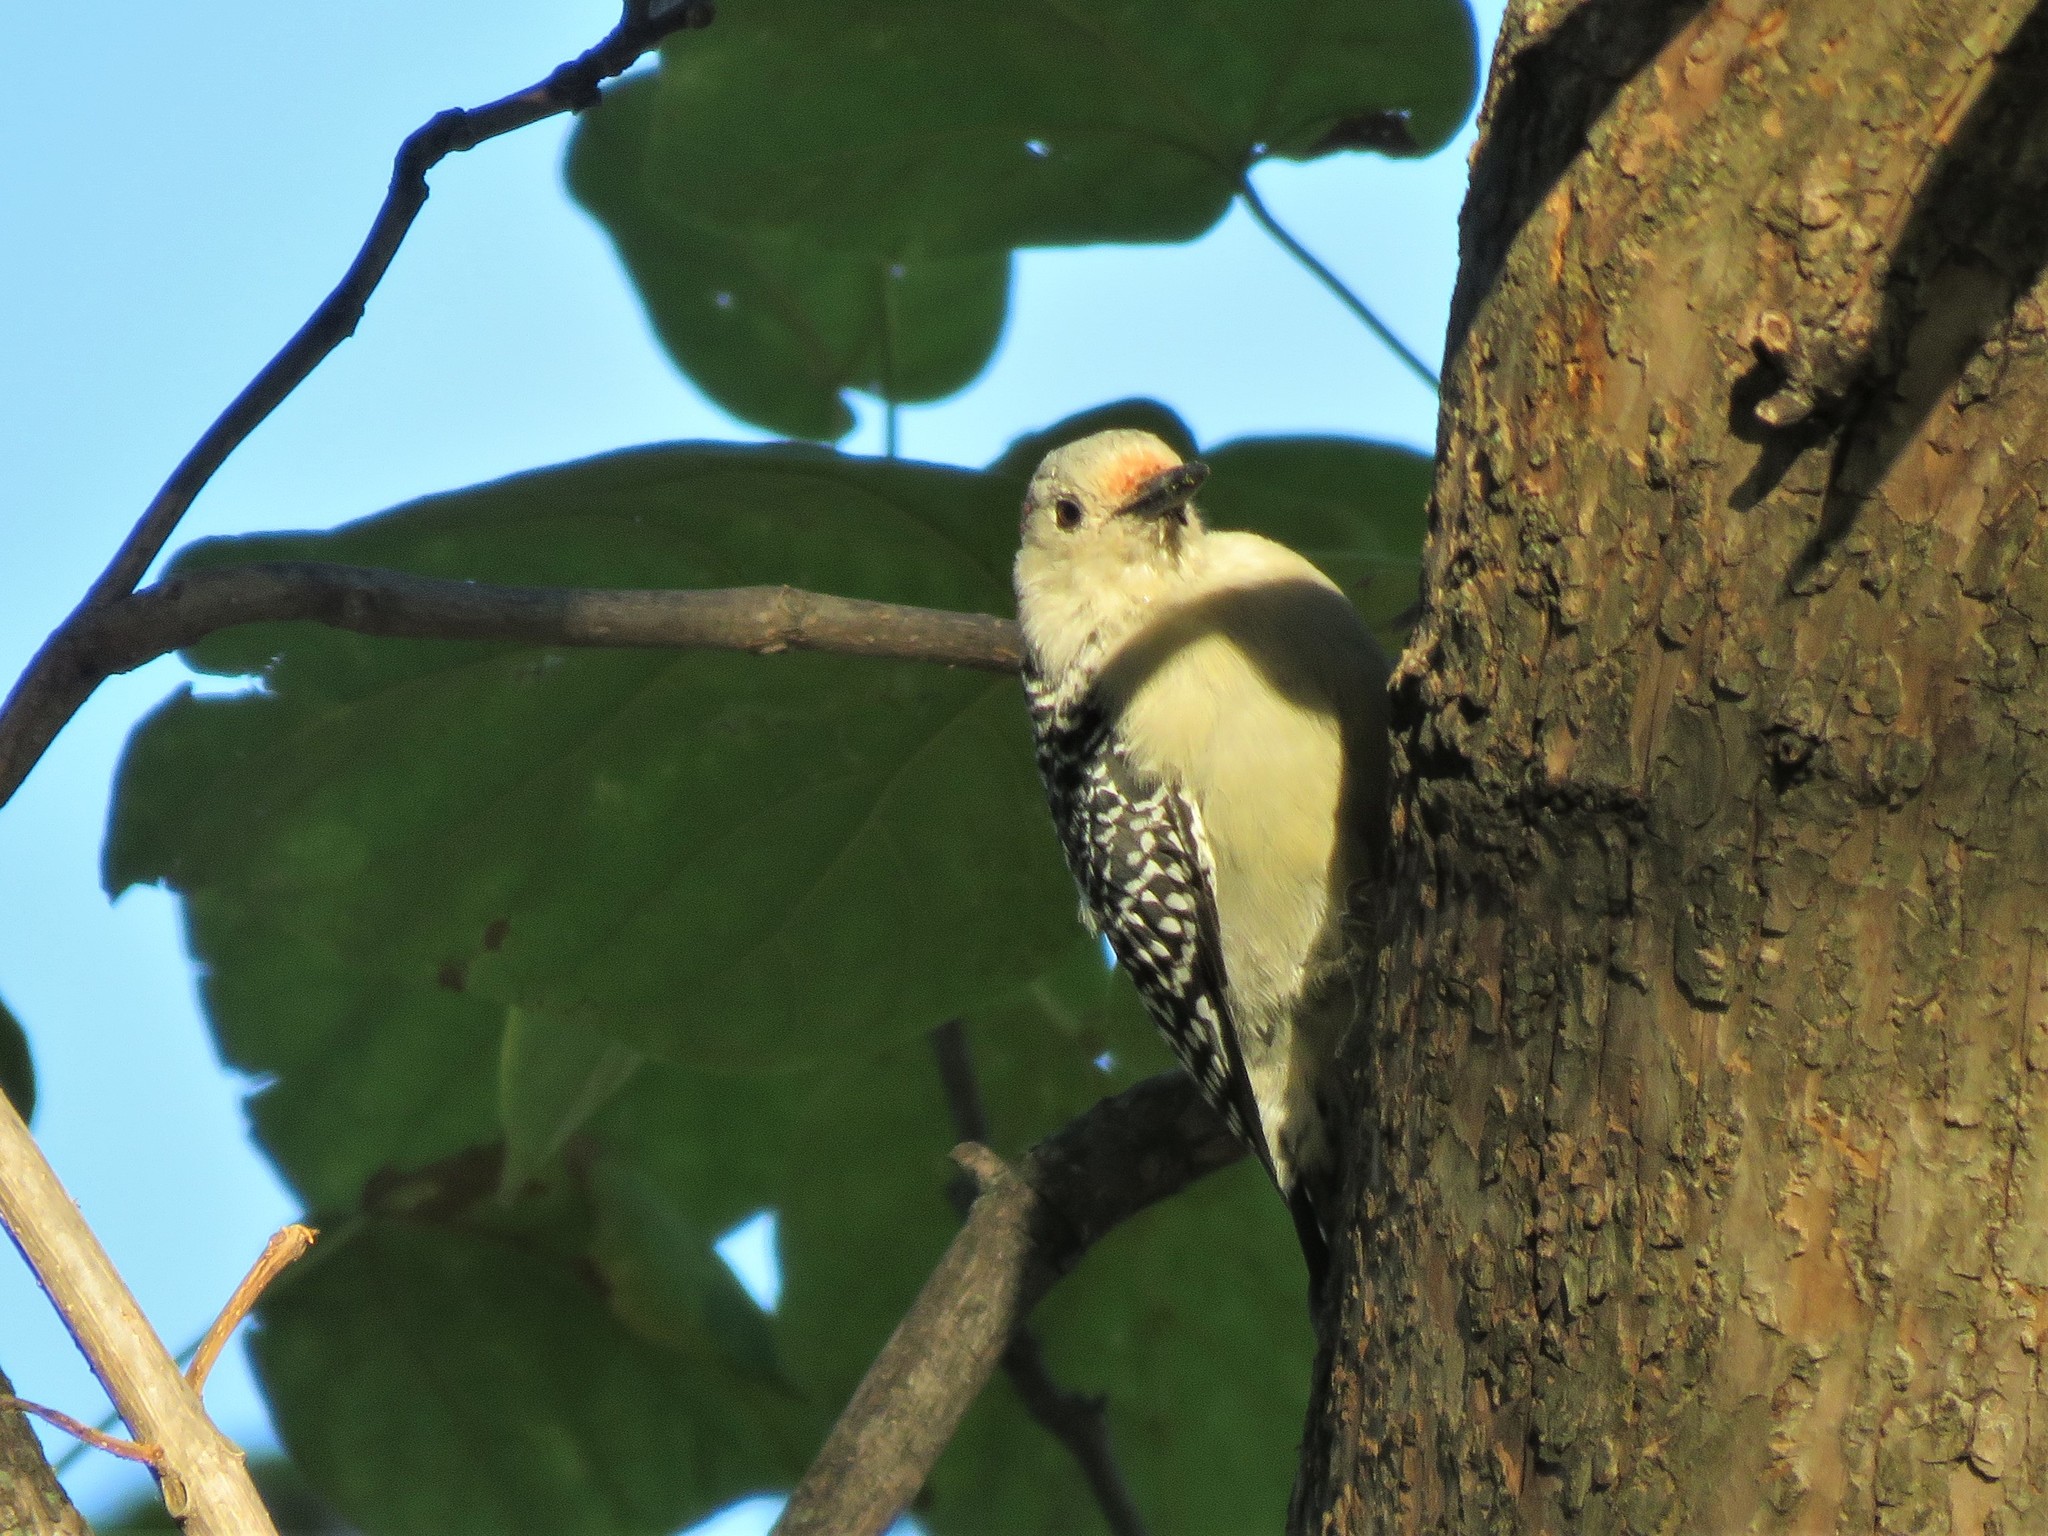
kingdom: Animalia
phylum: Chordata
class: Aves
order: Piciformes
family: Picidae
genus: Melanerpes
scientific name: Melanerpes carolinus
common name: Red-bellied woodpecker
